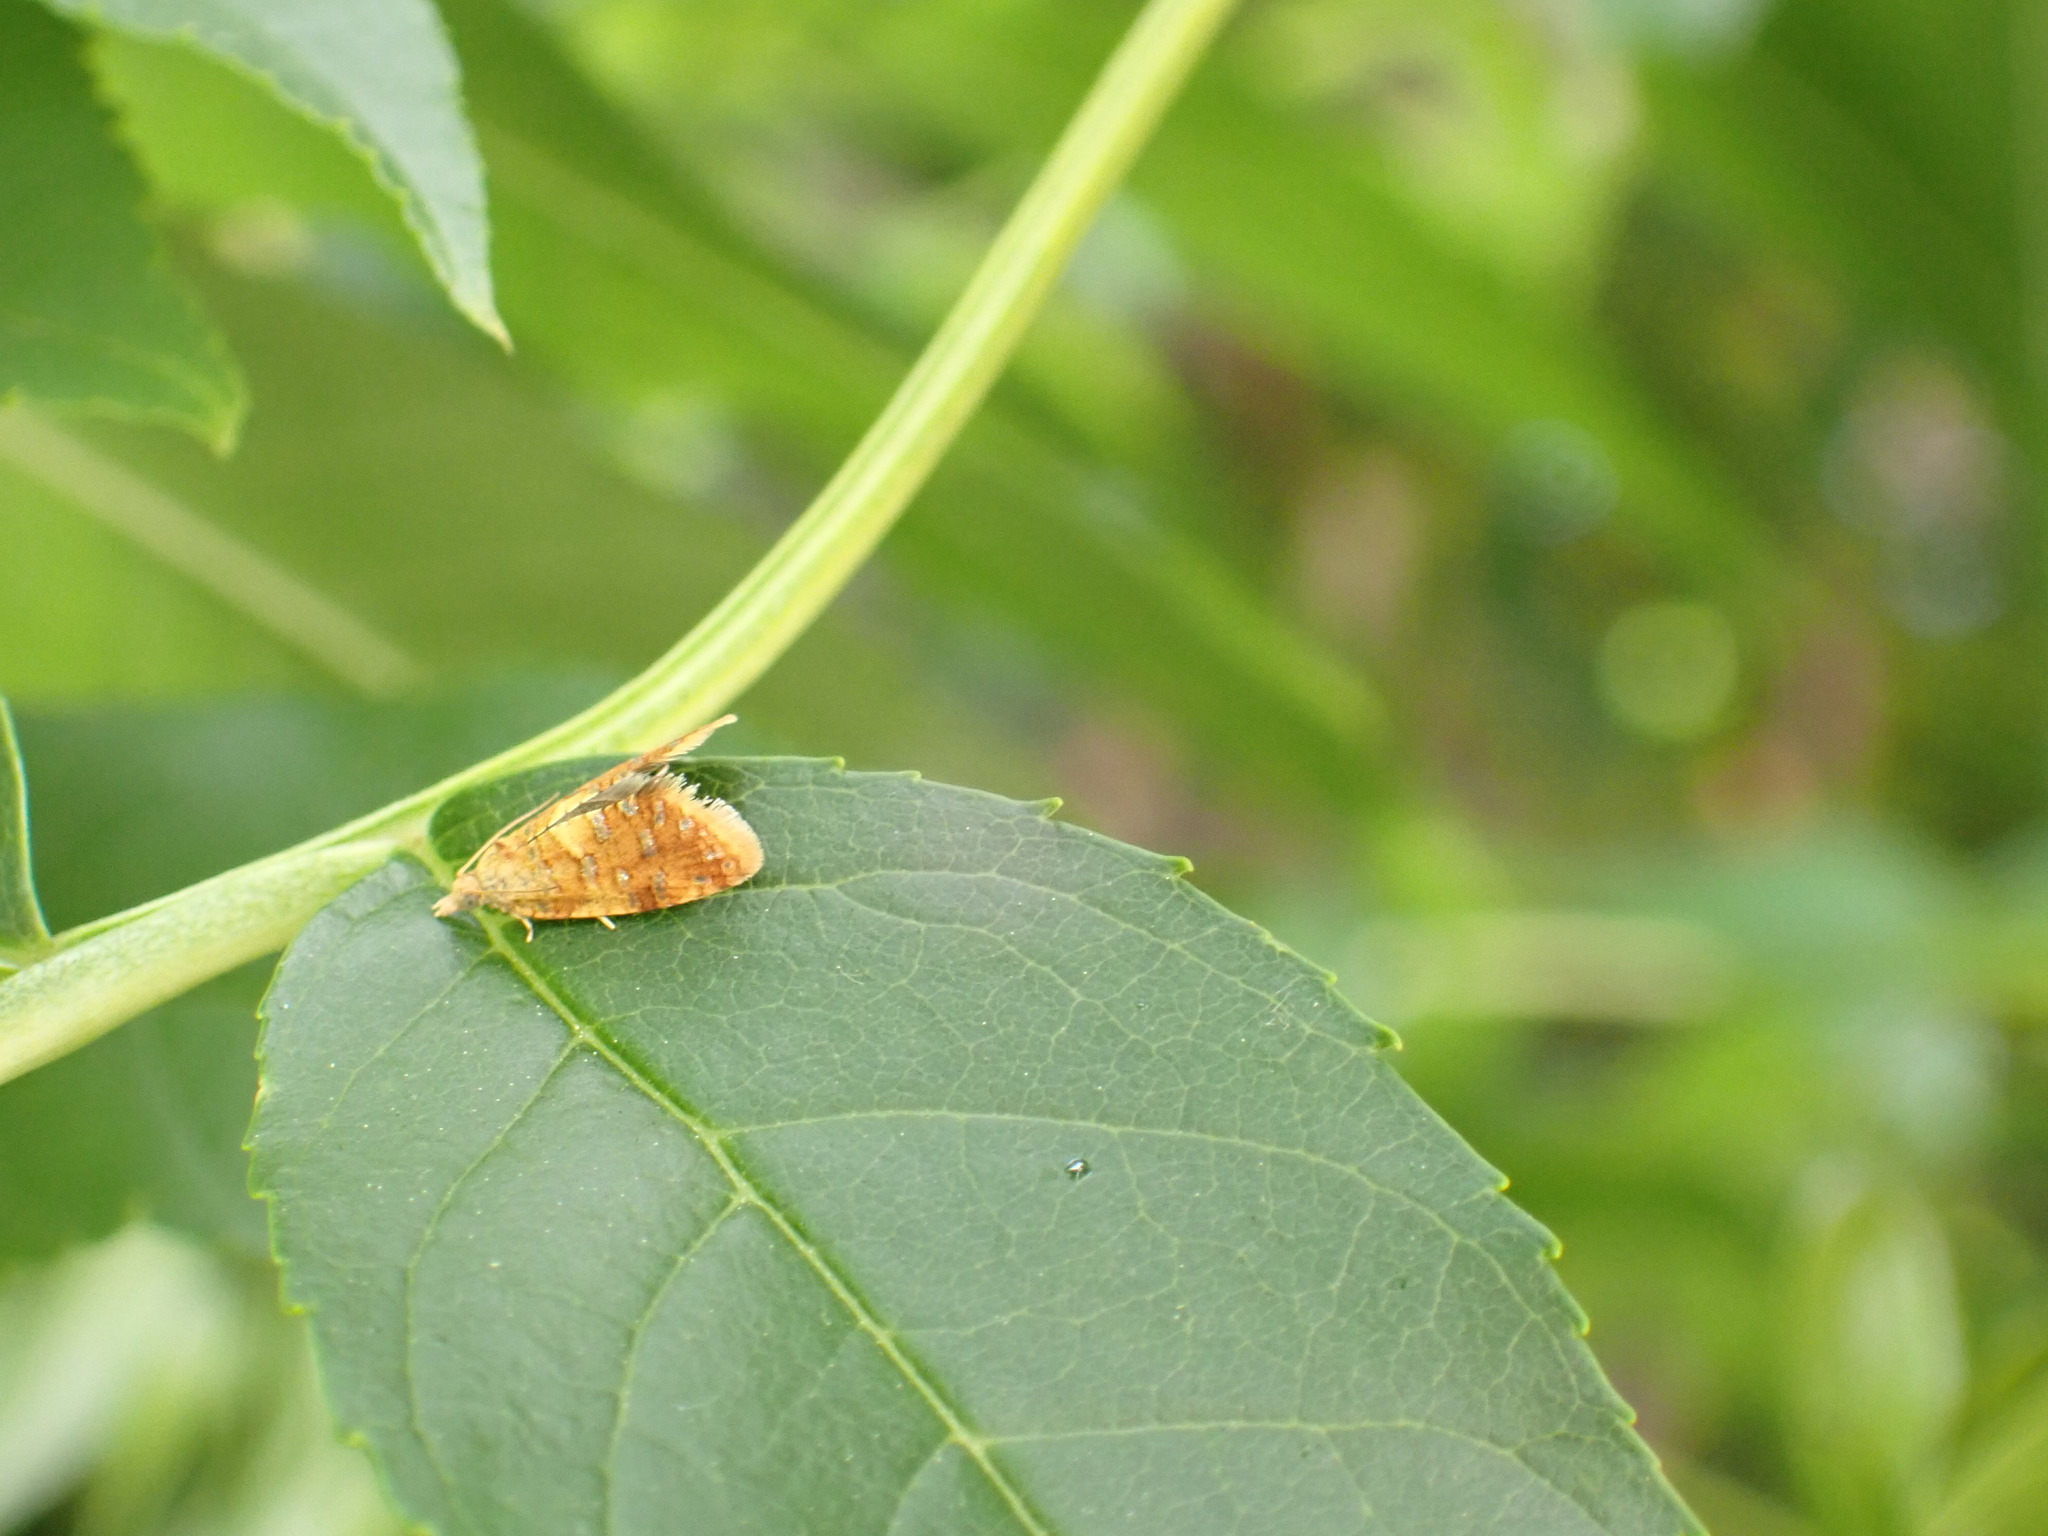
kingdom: Animalia
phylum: Arthropoda
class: Insecta
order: Lepidoptera
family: Tortricidae
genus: Pseudargyrotoza
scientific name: Pseudargyrotoza conwagana
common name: Yellow-spot twist
